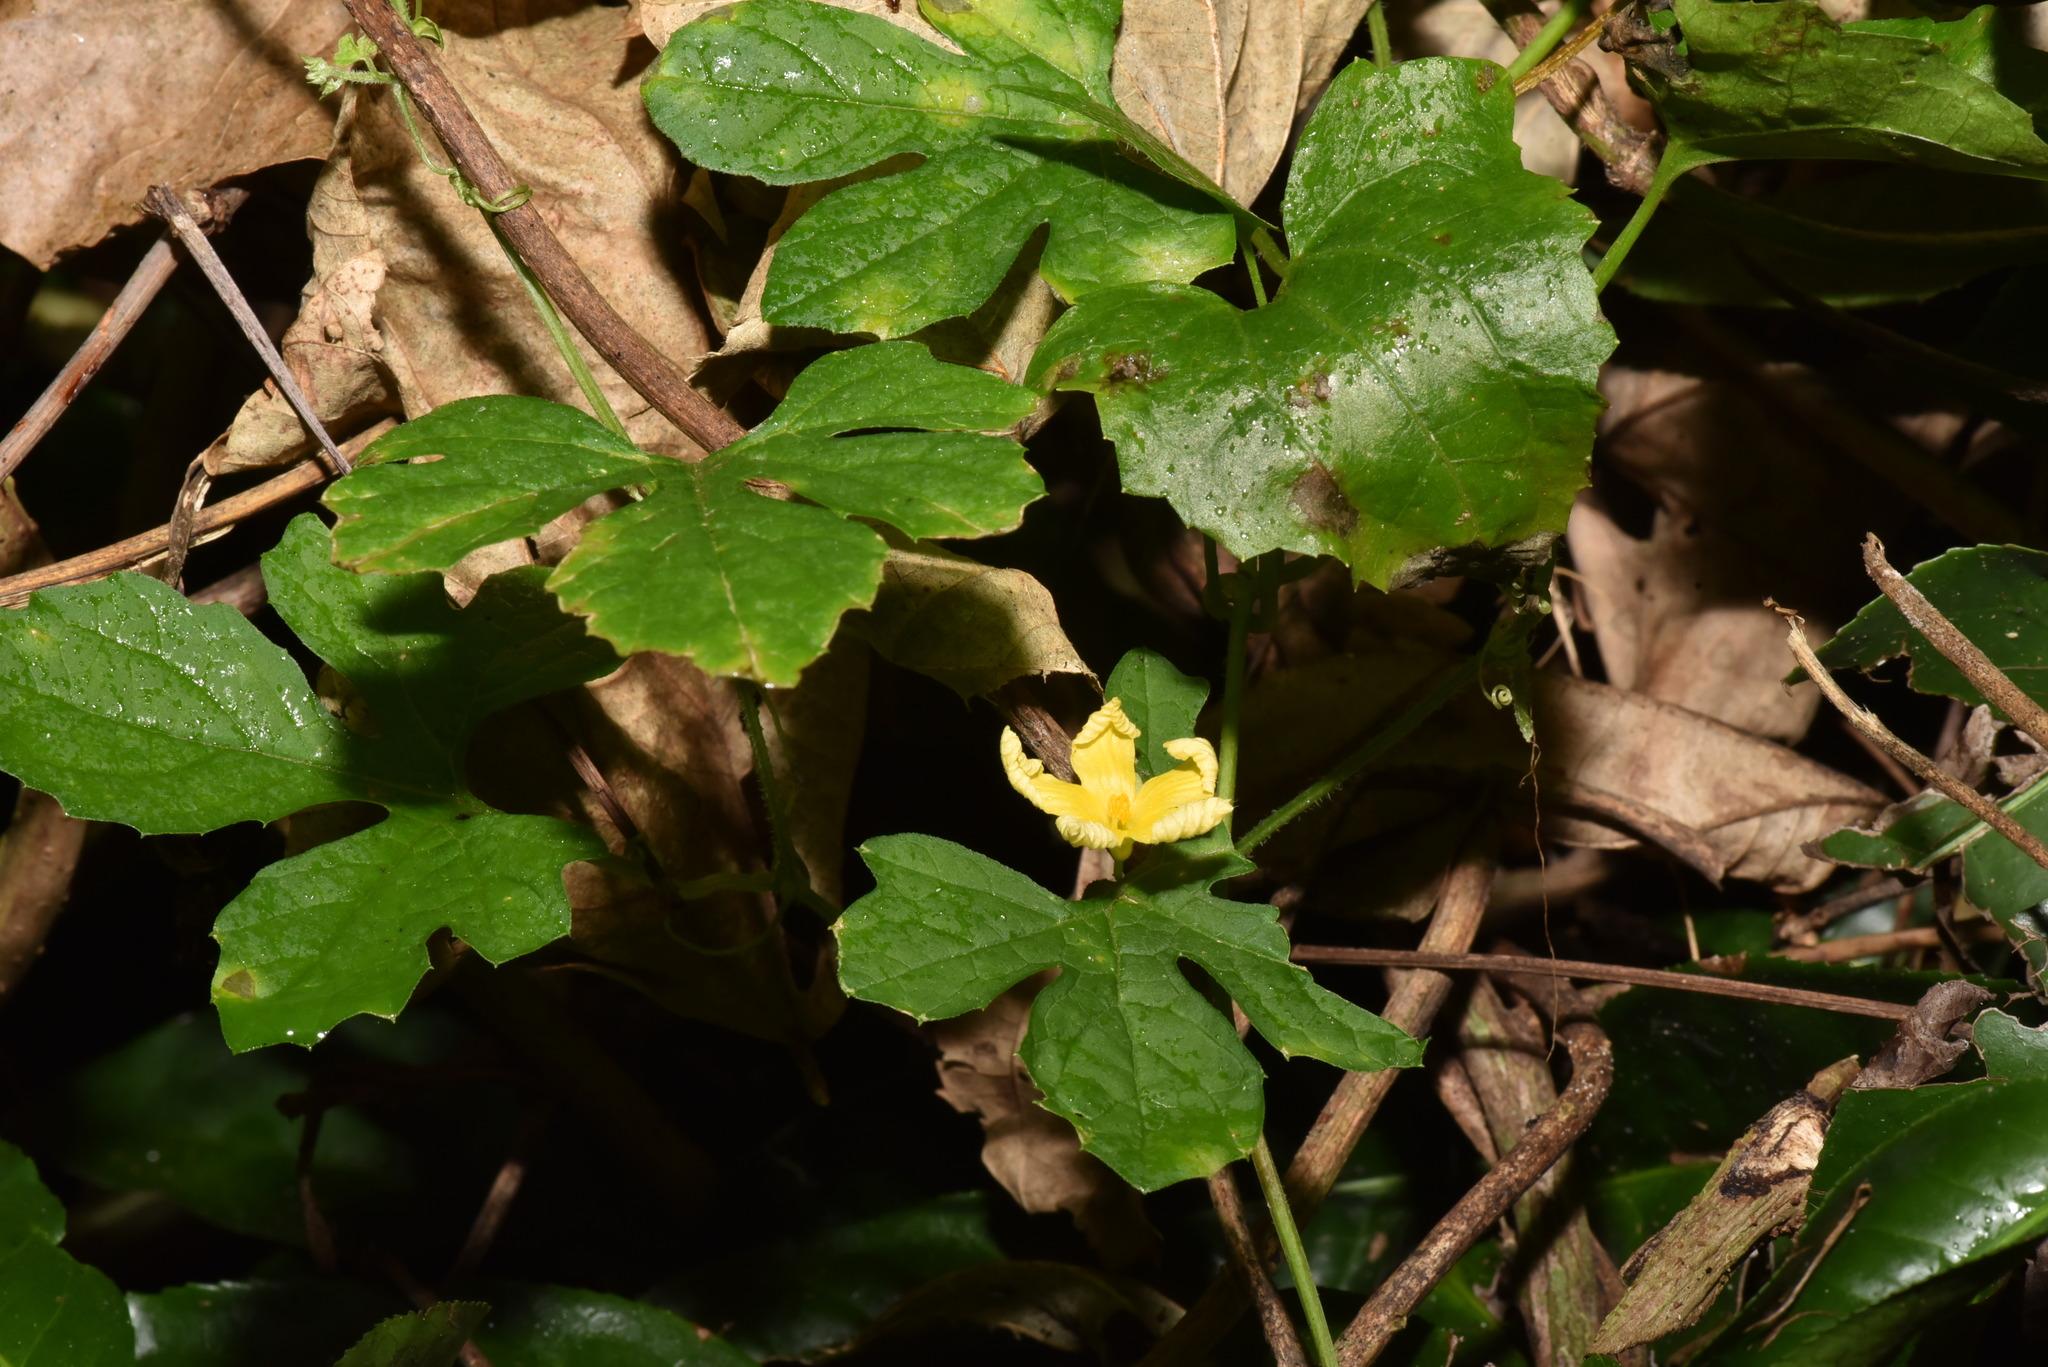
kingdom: Plantae
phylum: Tracheophyta
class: Magnoliopsida
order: Cucurbitales
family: Cucurbitaceae
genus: Momordica
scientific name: Momordica charantia
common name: Balsampear
